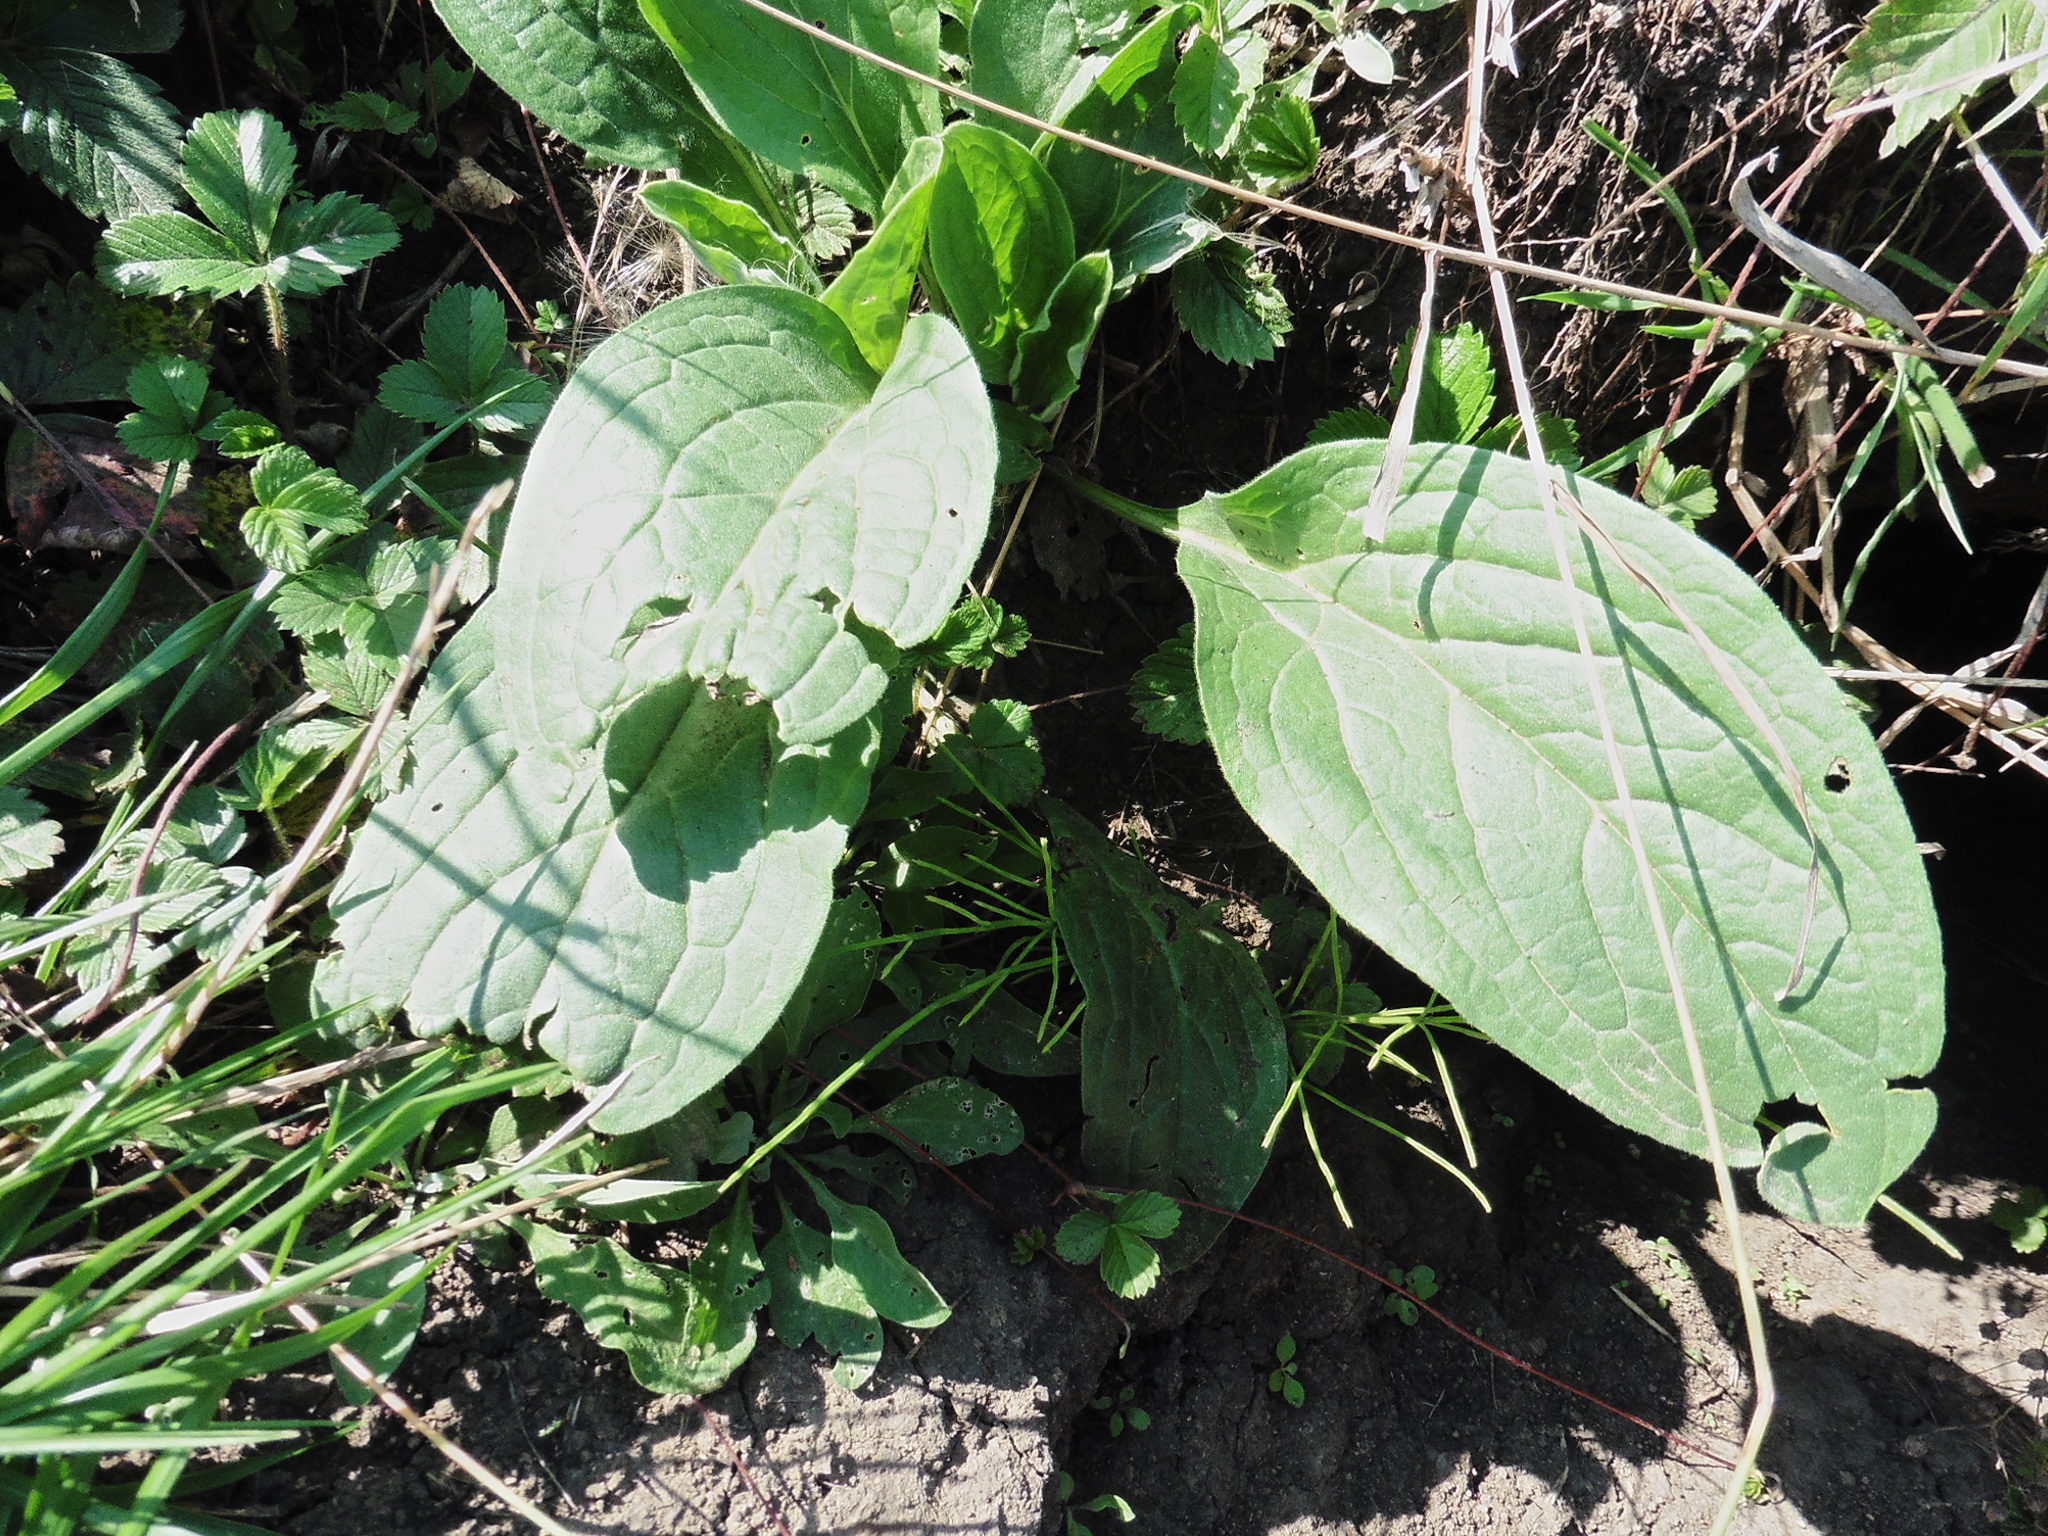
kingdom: Plantae
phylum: Tracheophyta
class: Magnoliopsida
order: Boraginales
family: Boraginaceae
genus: Cynoglossum
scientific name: Cynoglossum officinale
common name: Hound's-tongue
